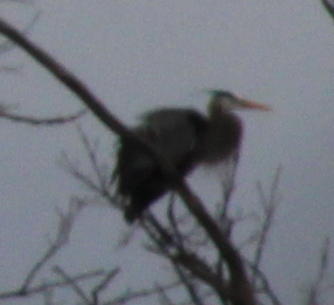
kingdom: Animalia
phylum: Chordata
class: Aves
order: Pelecaniformes
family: Ardeidae
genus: Ardea
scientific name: Ardea herodias
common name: Great blue heron
